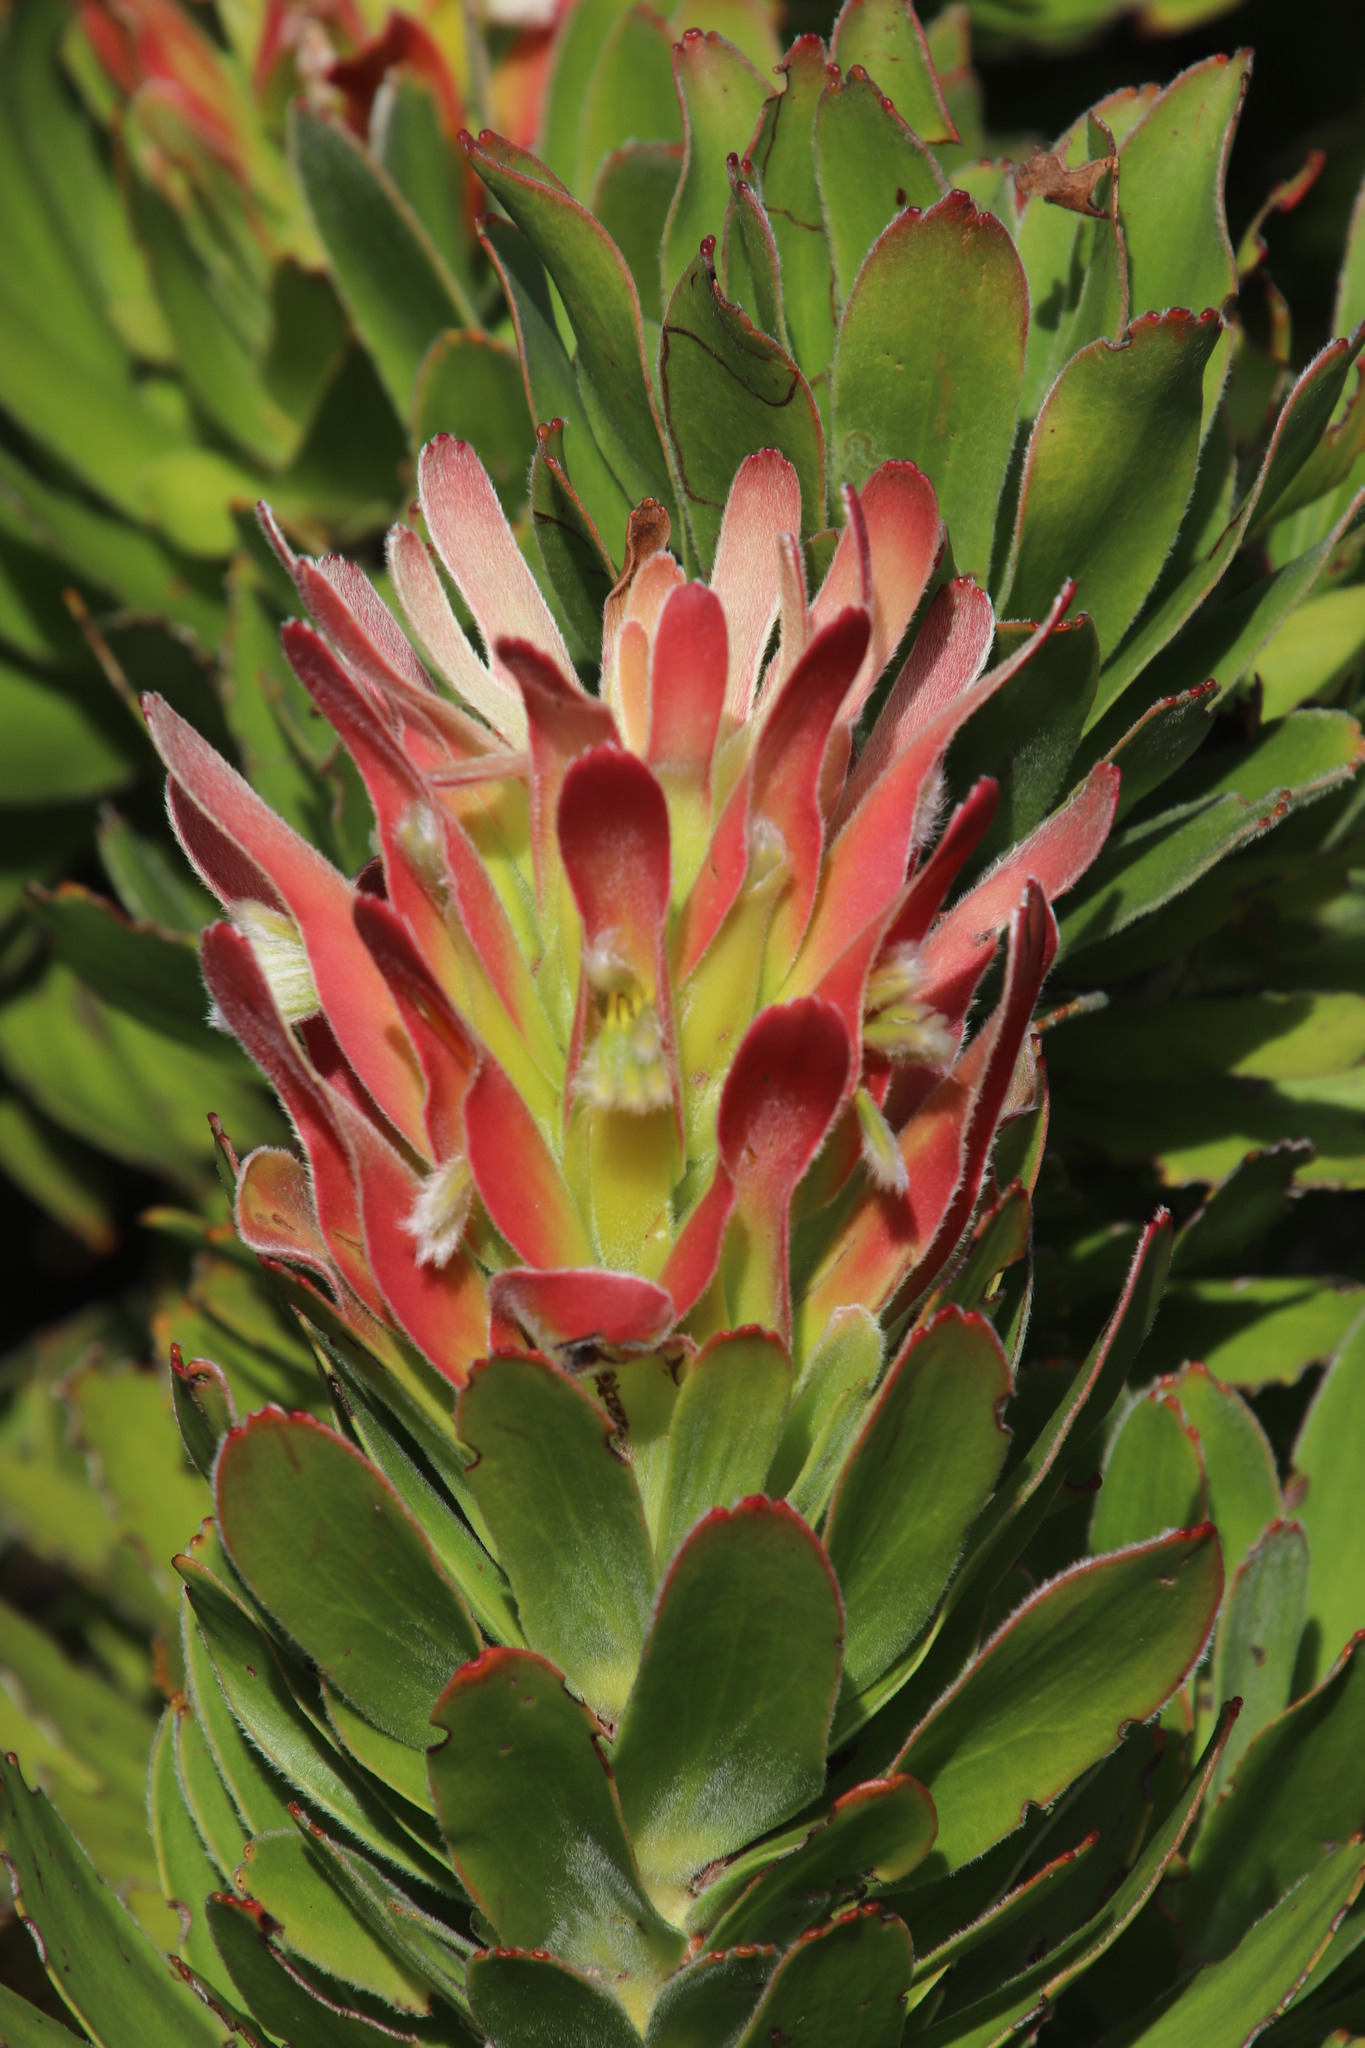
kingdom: Plantae
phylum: Tracheophyta
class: Magnoliopsida
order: Proteales
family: Proteaceae
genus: Mimetes
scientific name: Mimetes fimbriifolius
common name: Fringed bottlebrush
